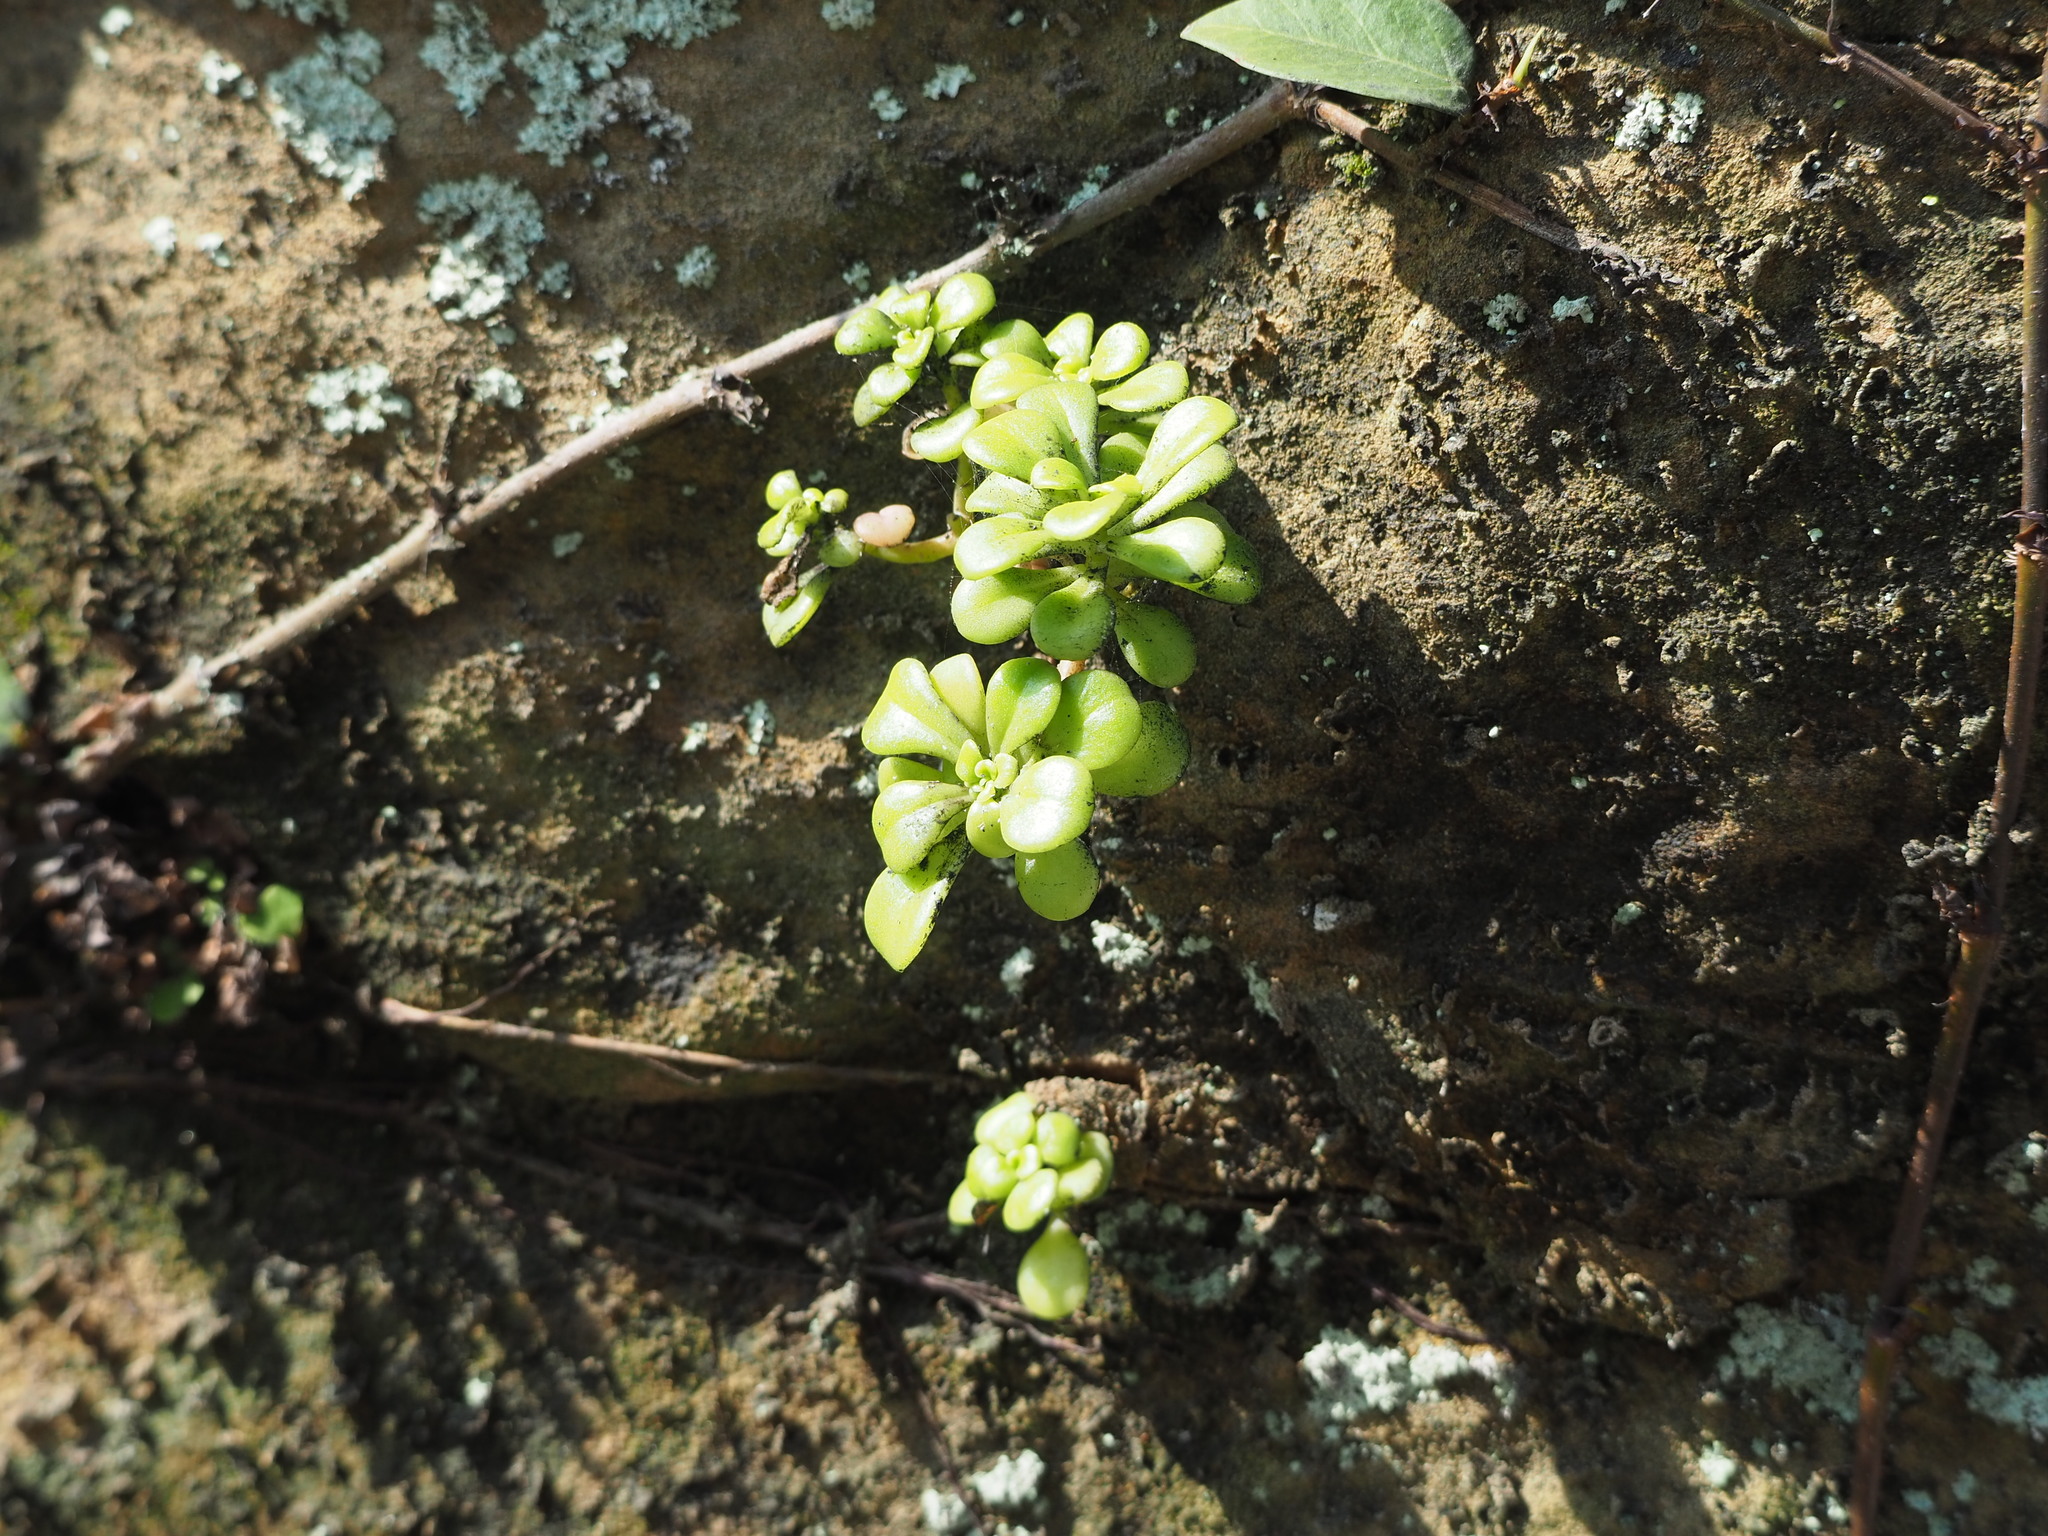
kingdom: Plantae
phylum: Tracheophyta
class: Magnoliopsida
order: Saxifragales
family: Crassulaceae
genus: Sedum
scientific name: Sedum formosanum
